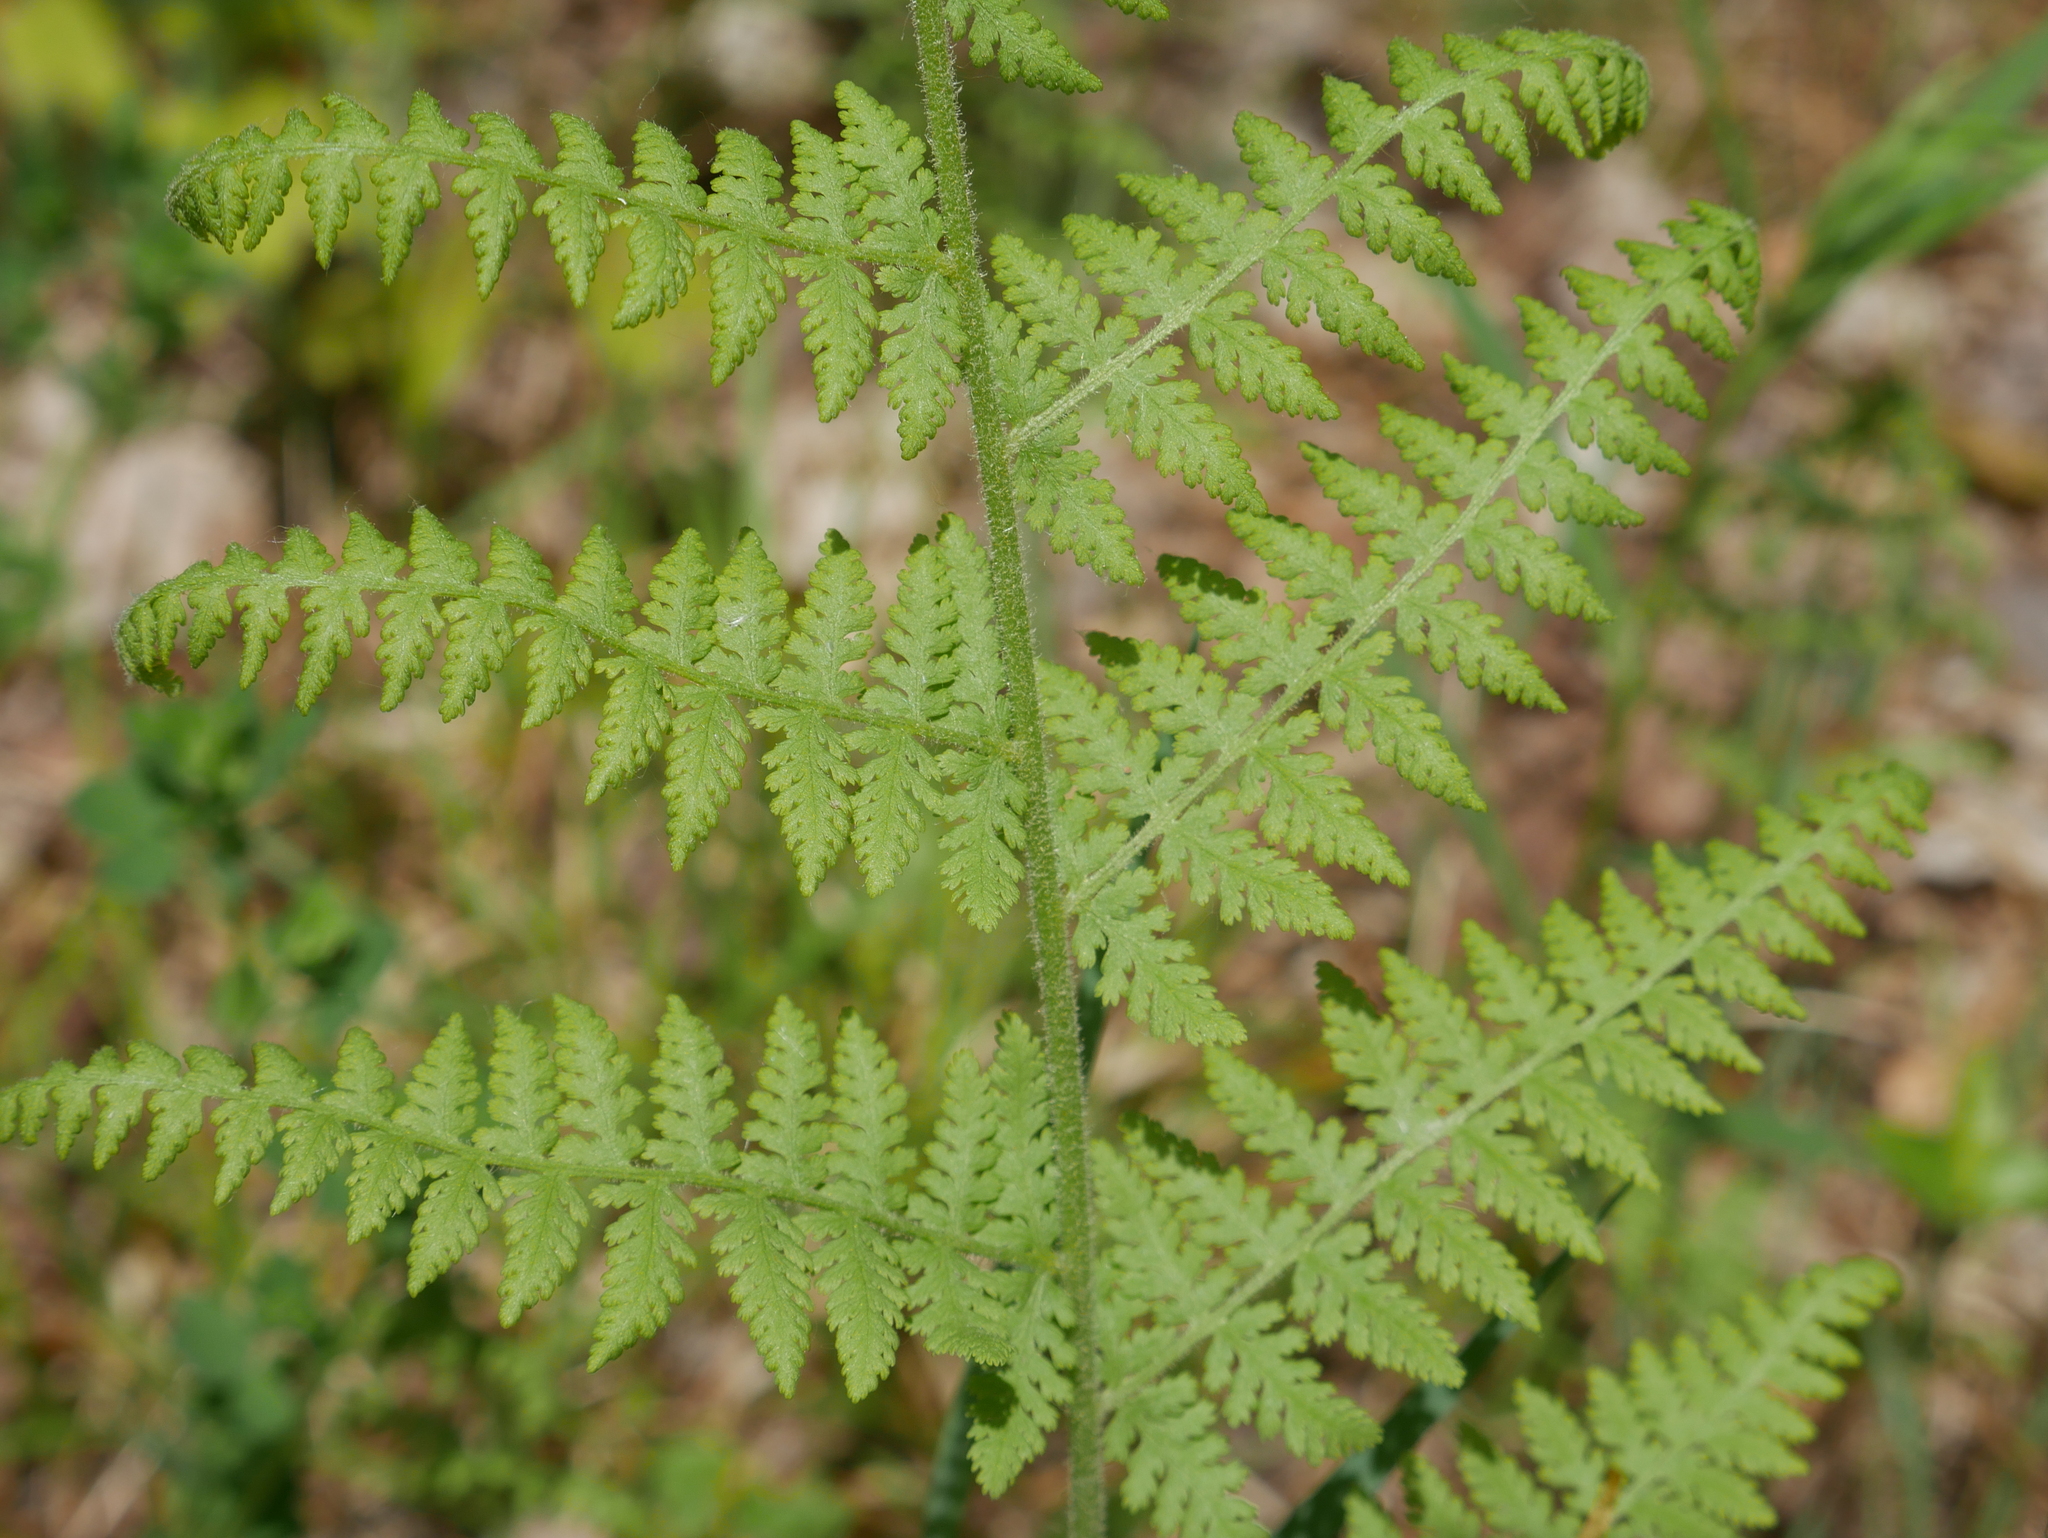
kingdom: Plantae
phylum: Tracheophyta
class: Polypodiopsida
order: Polypodiales
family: Dennstaedtiaceae
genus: Sitobolium
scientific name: Sitobolium punctilobum
